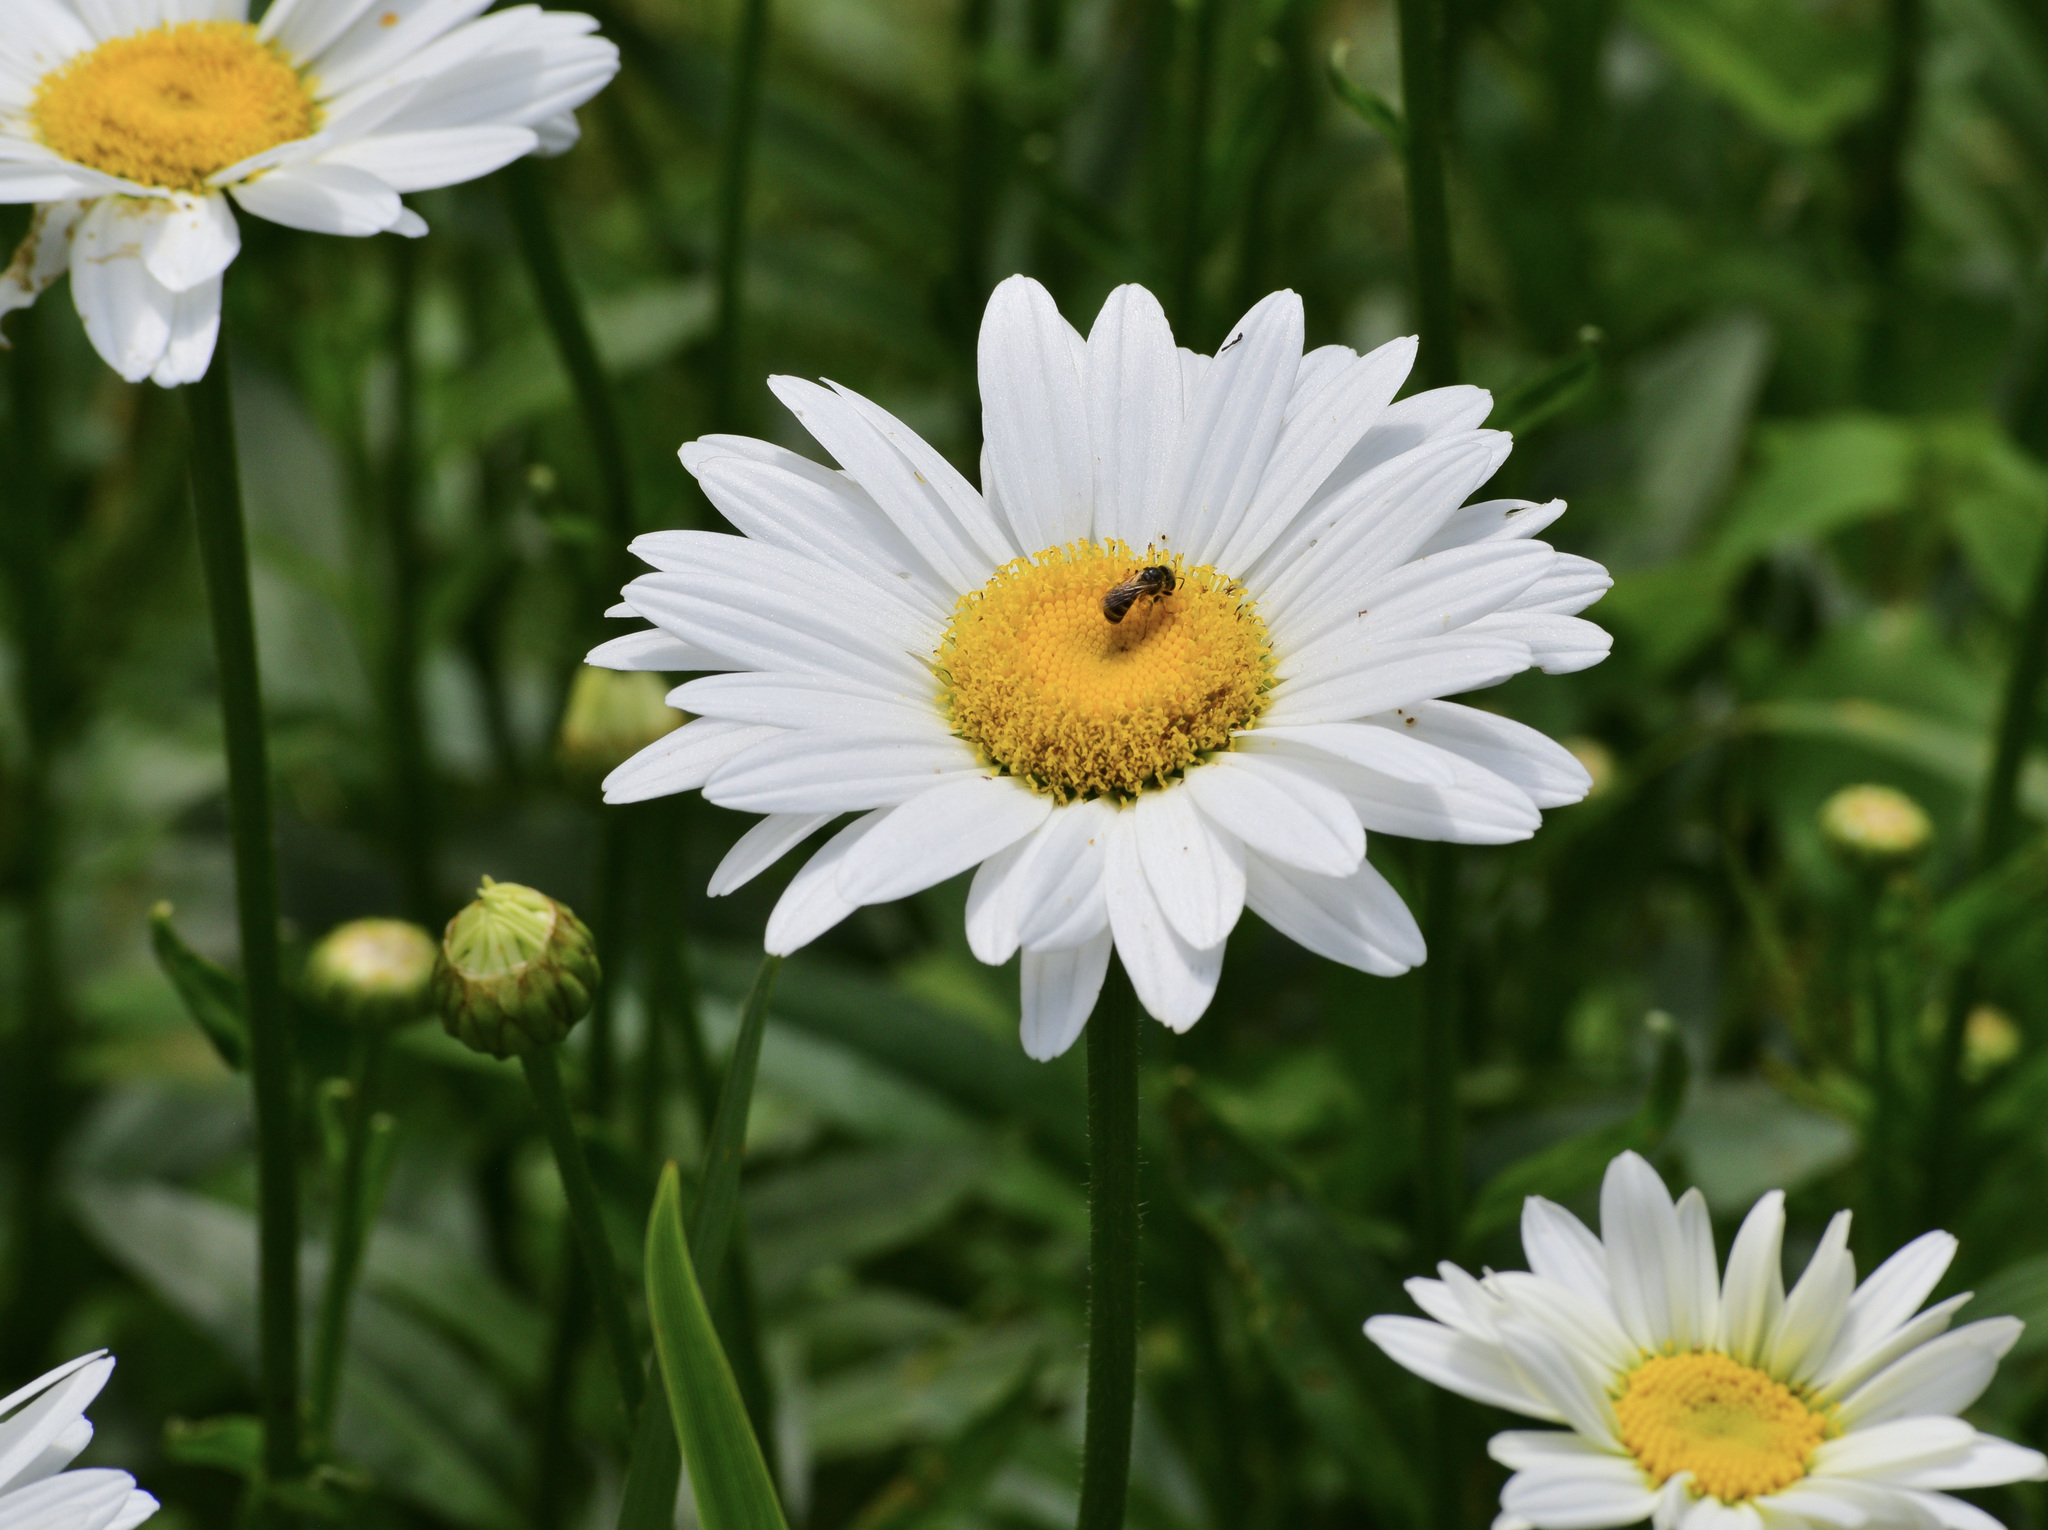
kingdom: Animalia
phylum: Arthropoda
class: Insecta
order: Hymenoptera
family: Halictidae
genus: Halictus
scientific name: Halictus ligatus
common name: Ligated furrow bee
